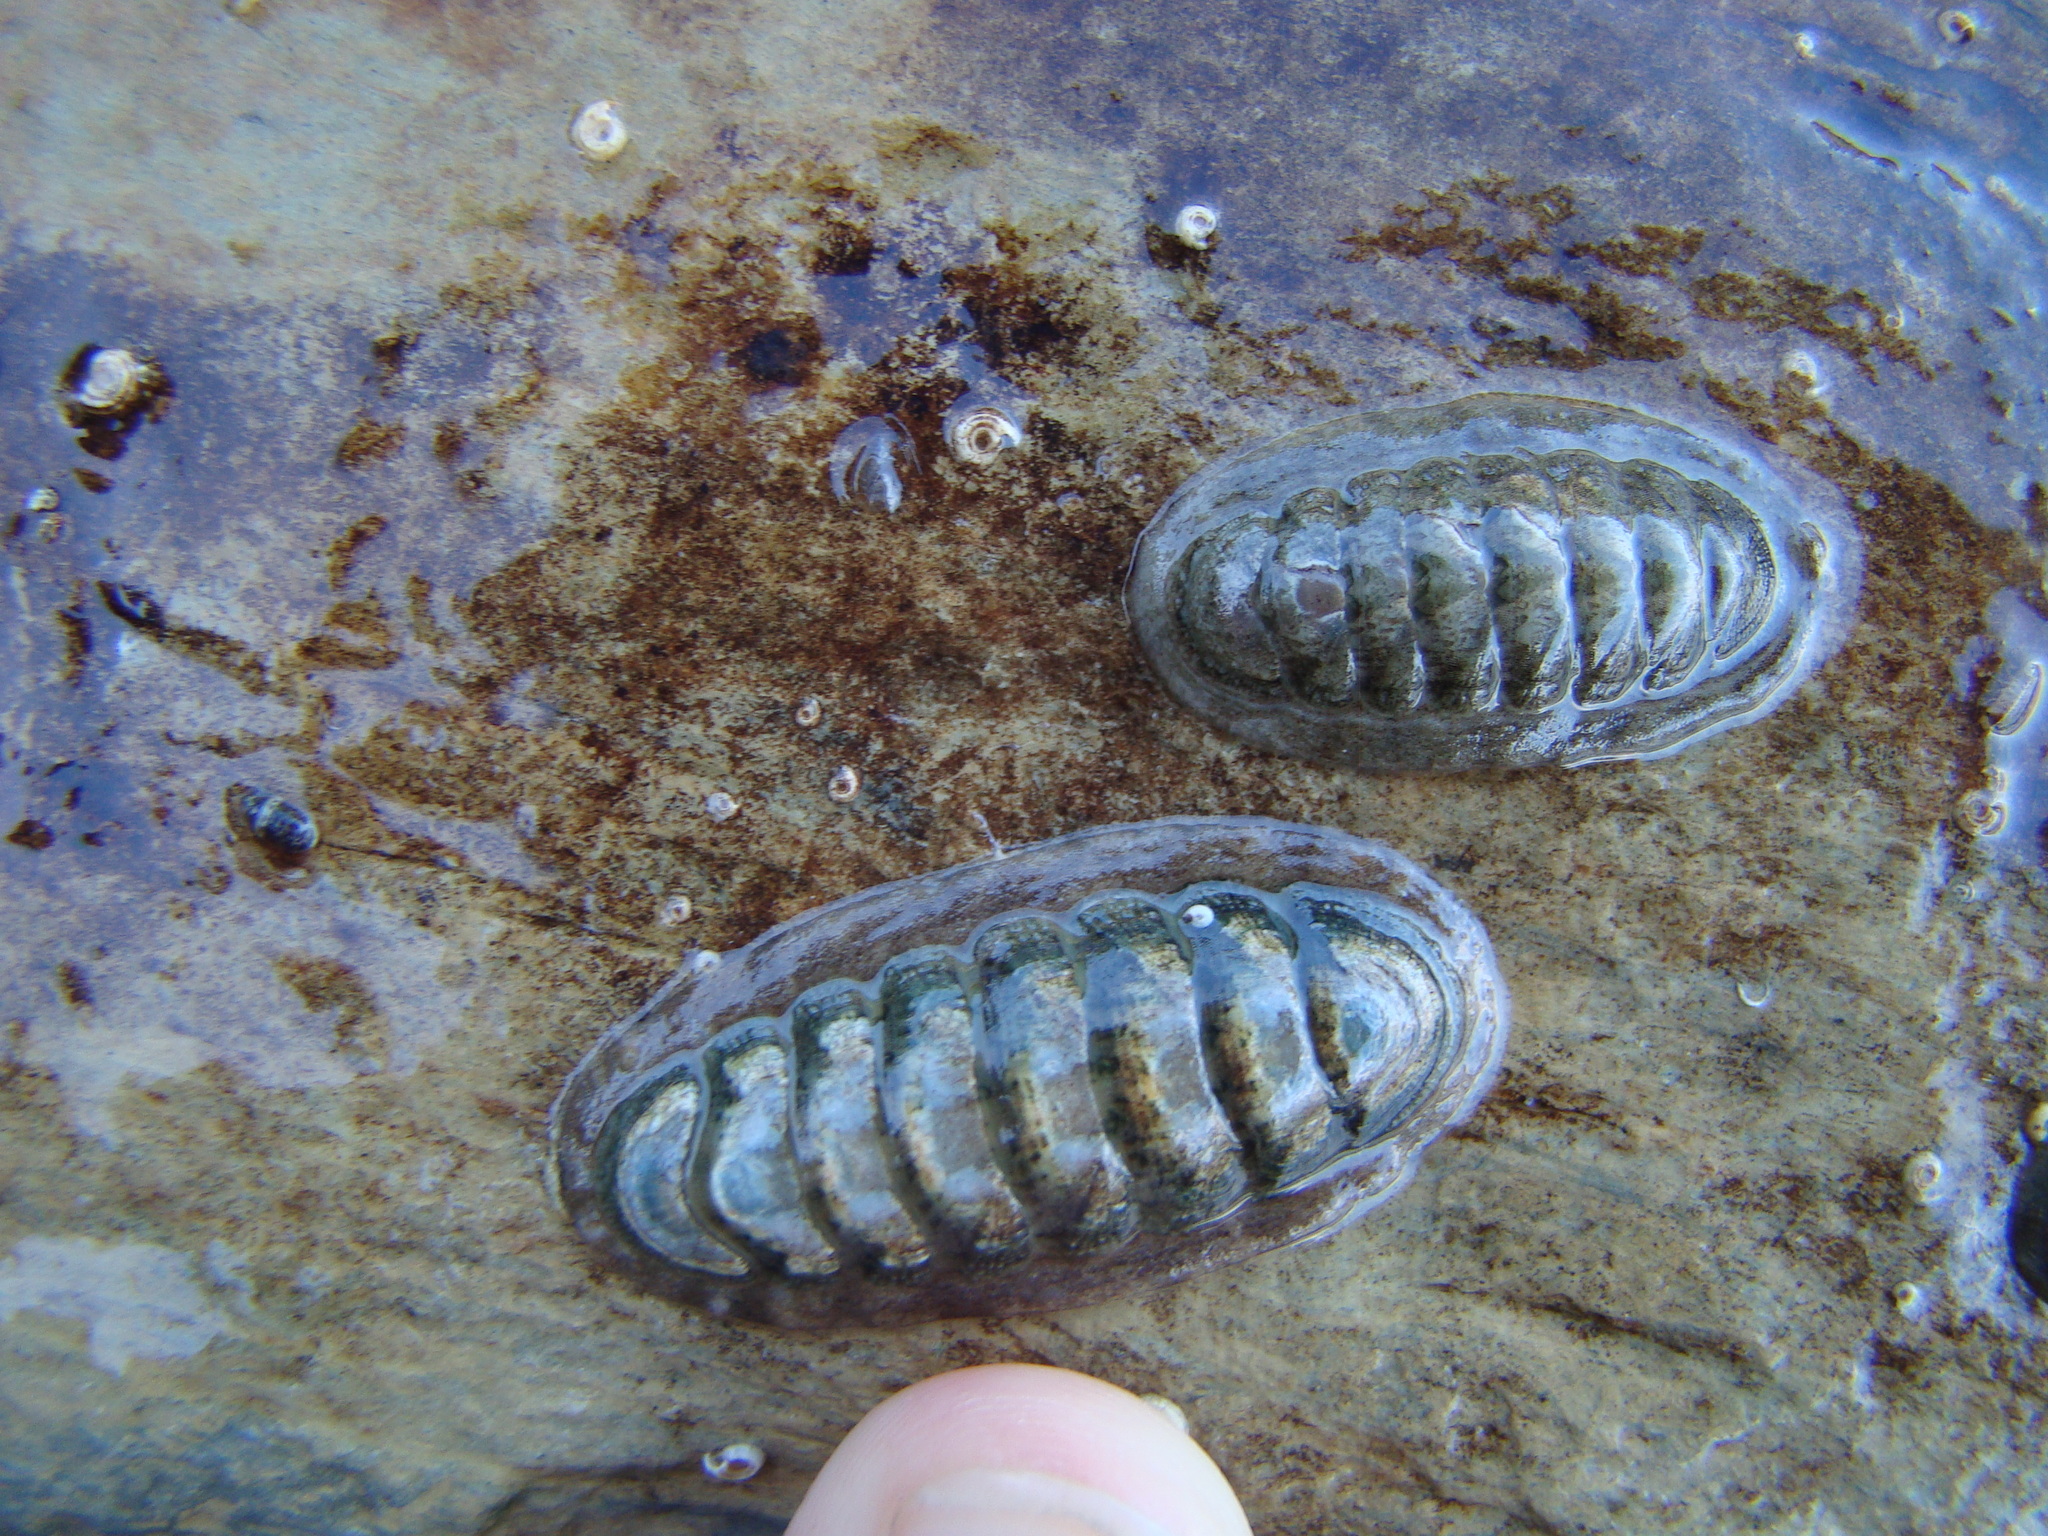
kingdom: Animalia
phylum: Mollusca
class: Polyplacophora
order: Chitonida
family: Ischnochitonidae
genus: Ischnochiton
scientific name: Ischnochiton maorianus
